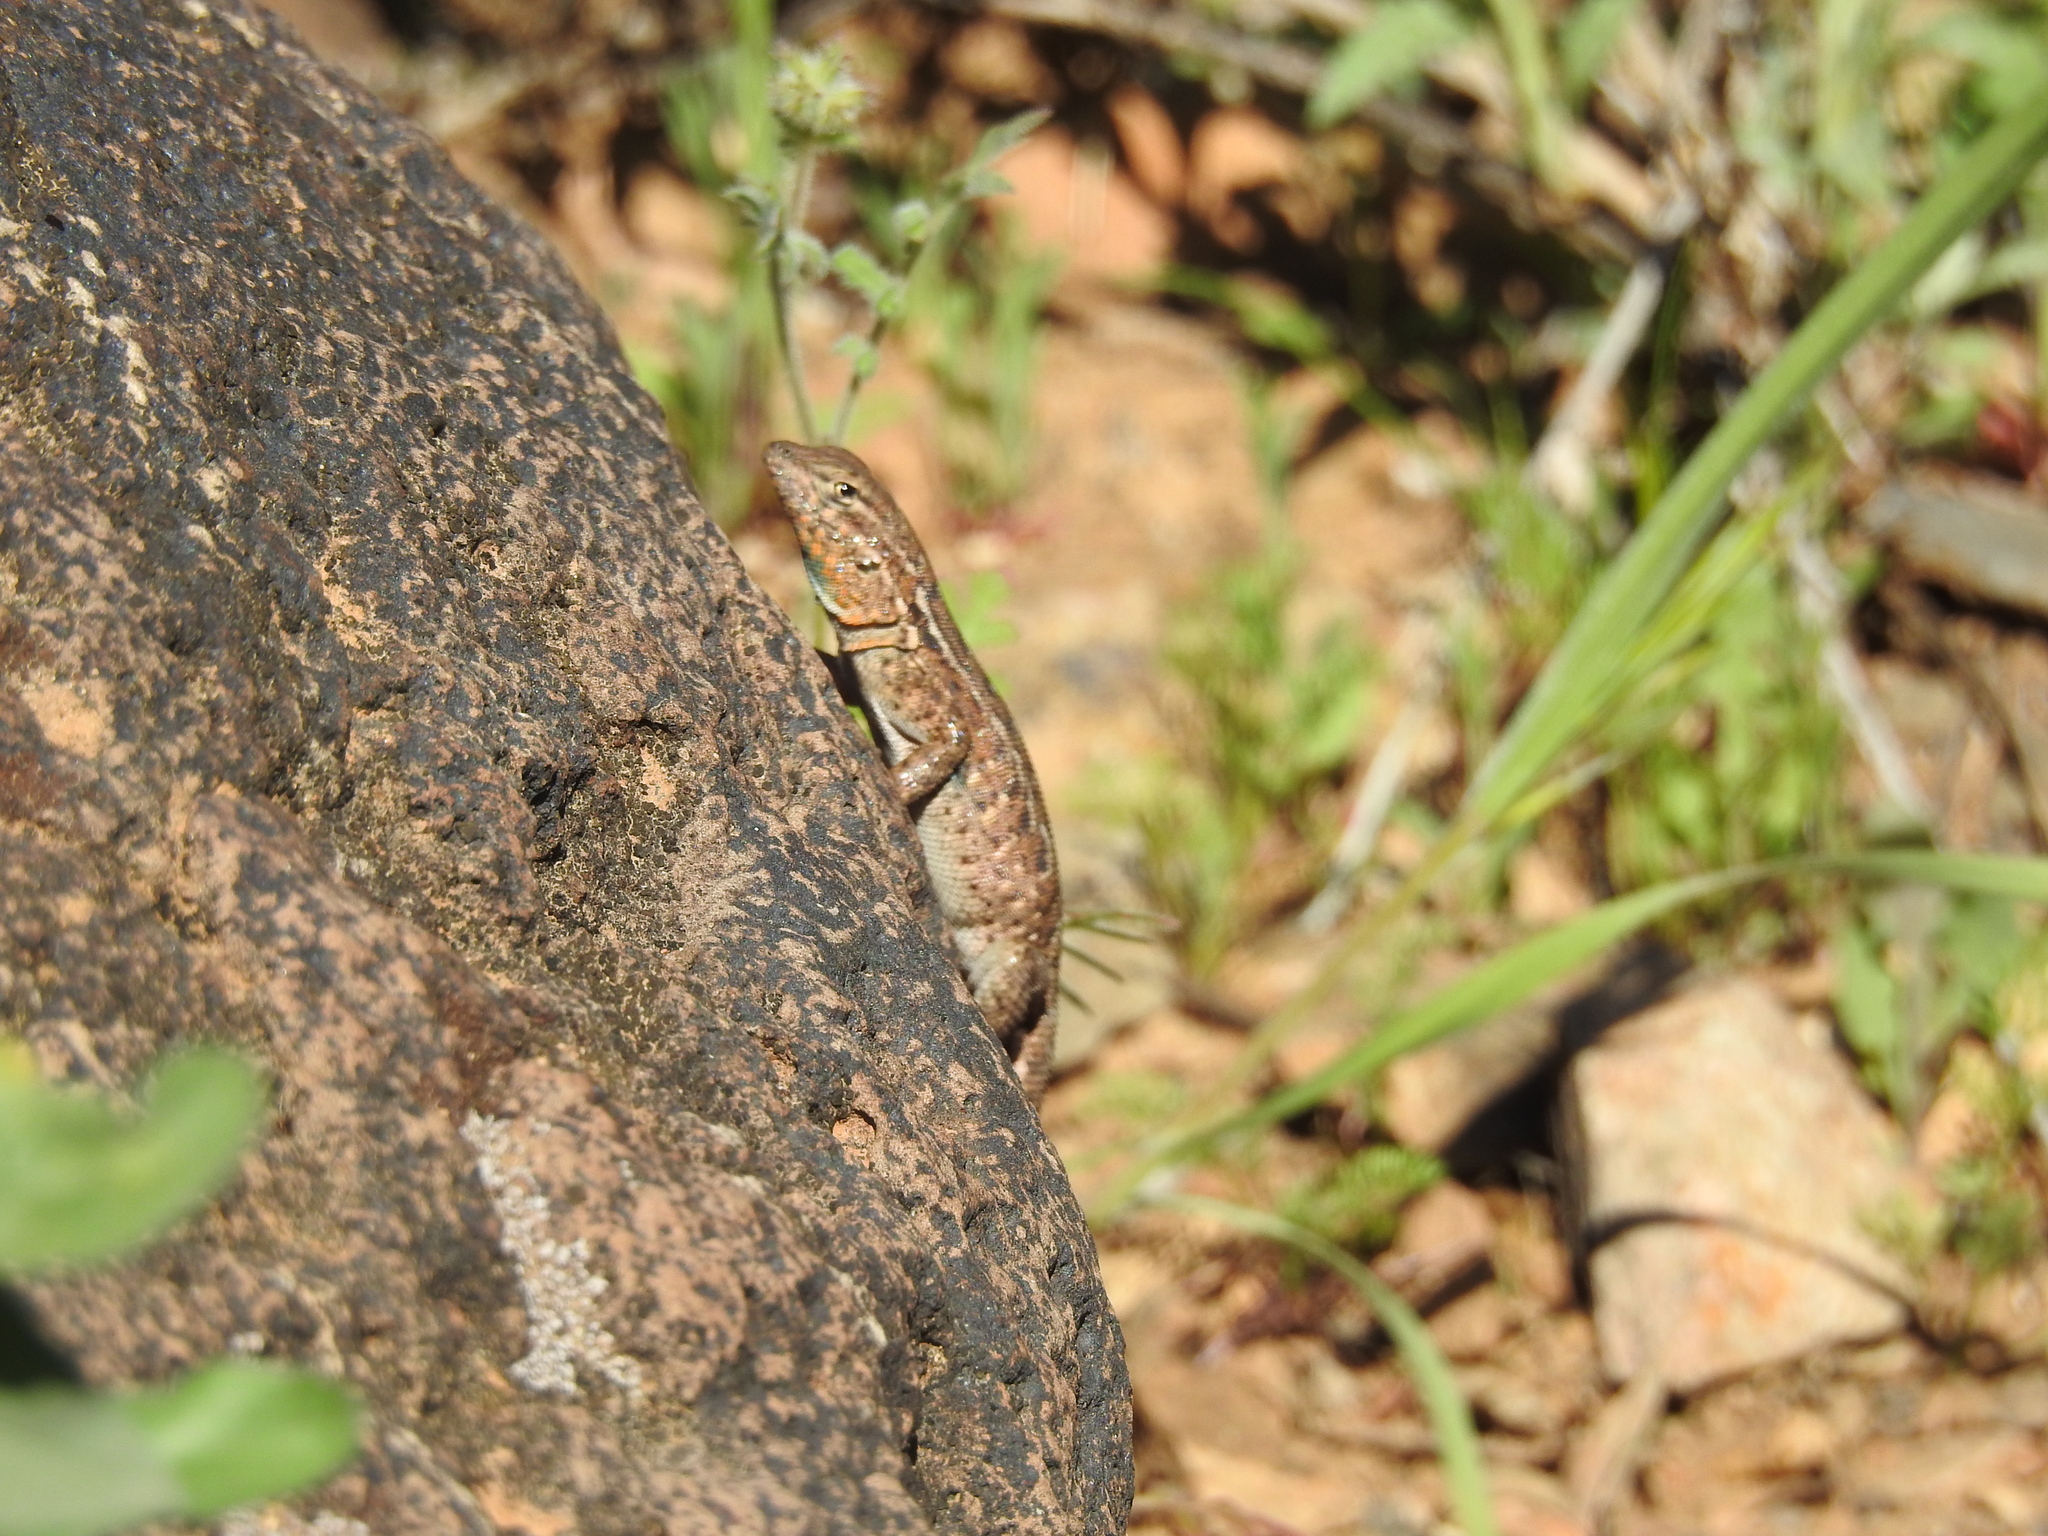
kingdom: Animalia
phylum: Chordata
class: Squamata
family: Phrynosomatidae
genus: Uta
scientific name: Uta stansburiana
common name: Side-blotched lizard
